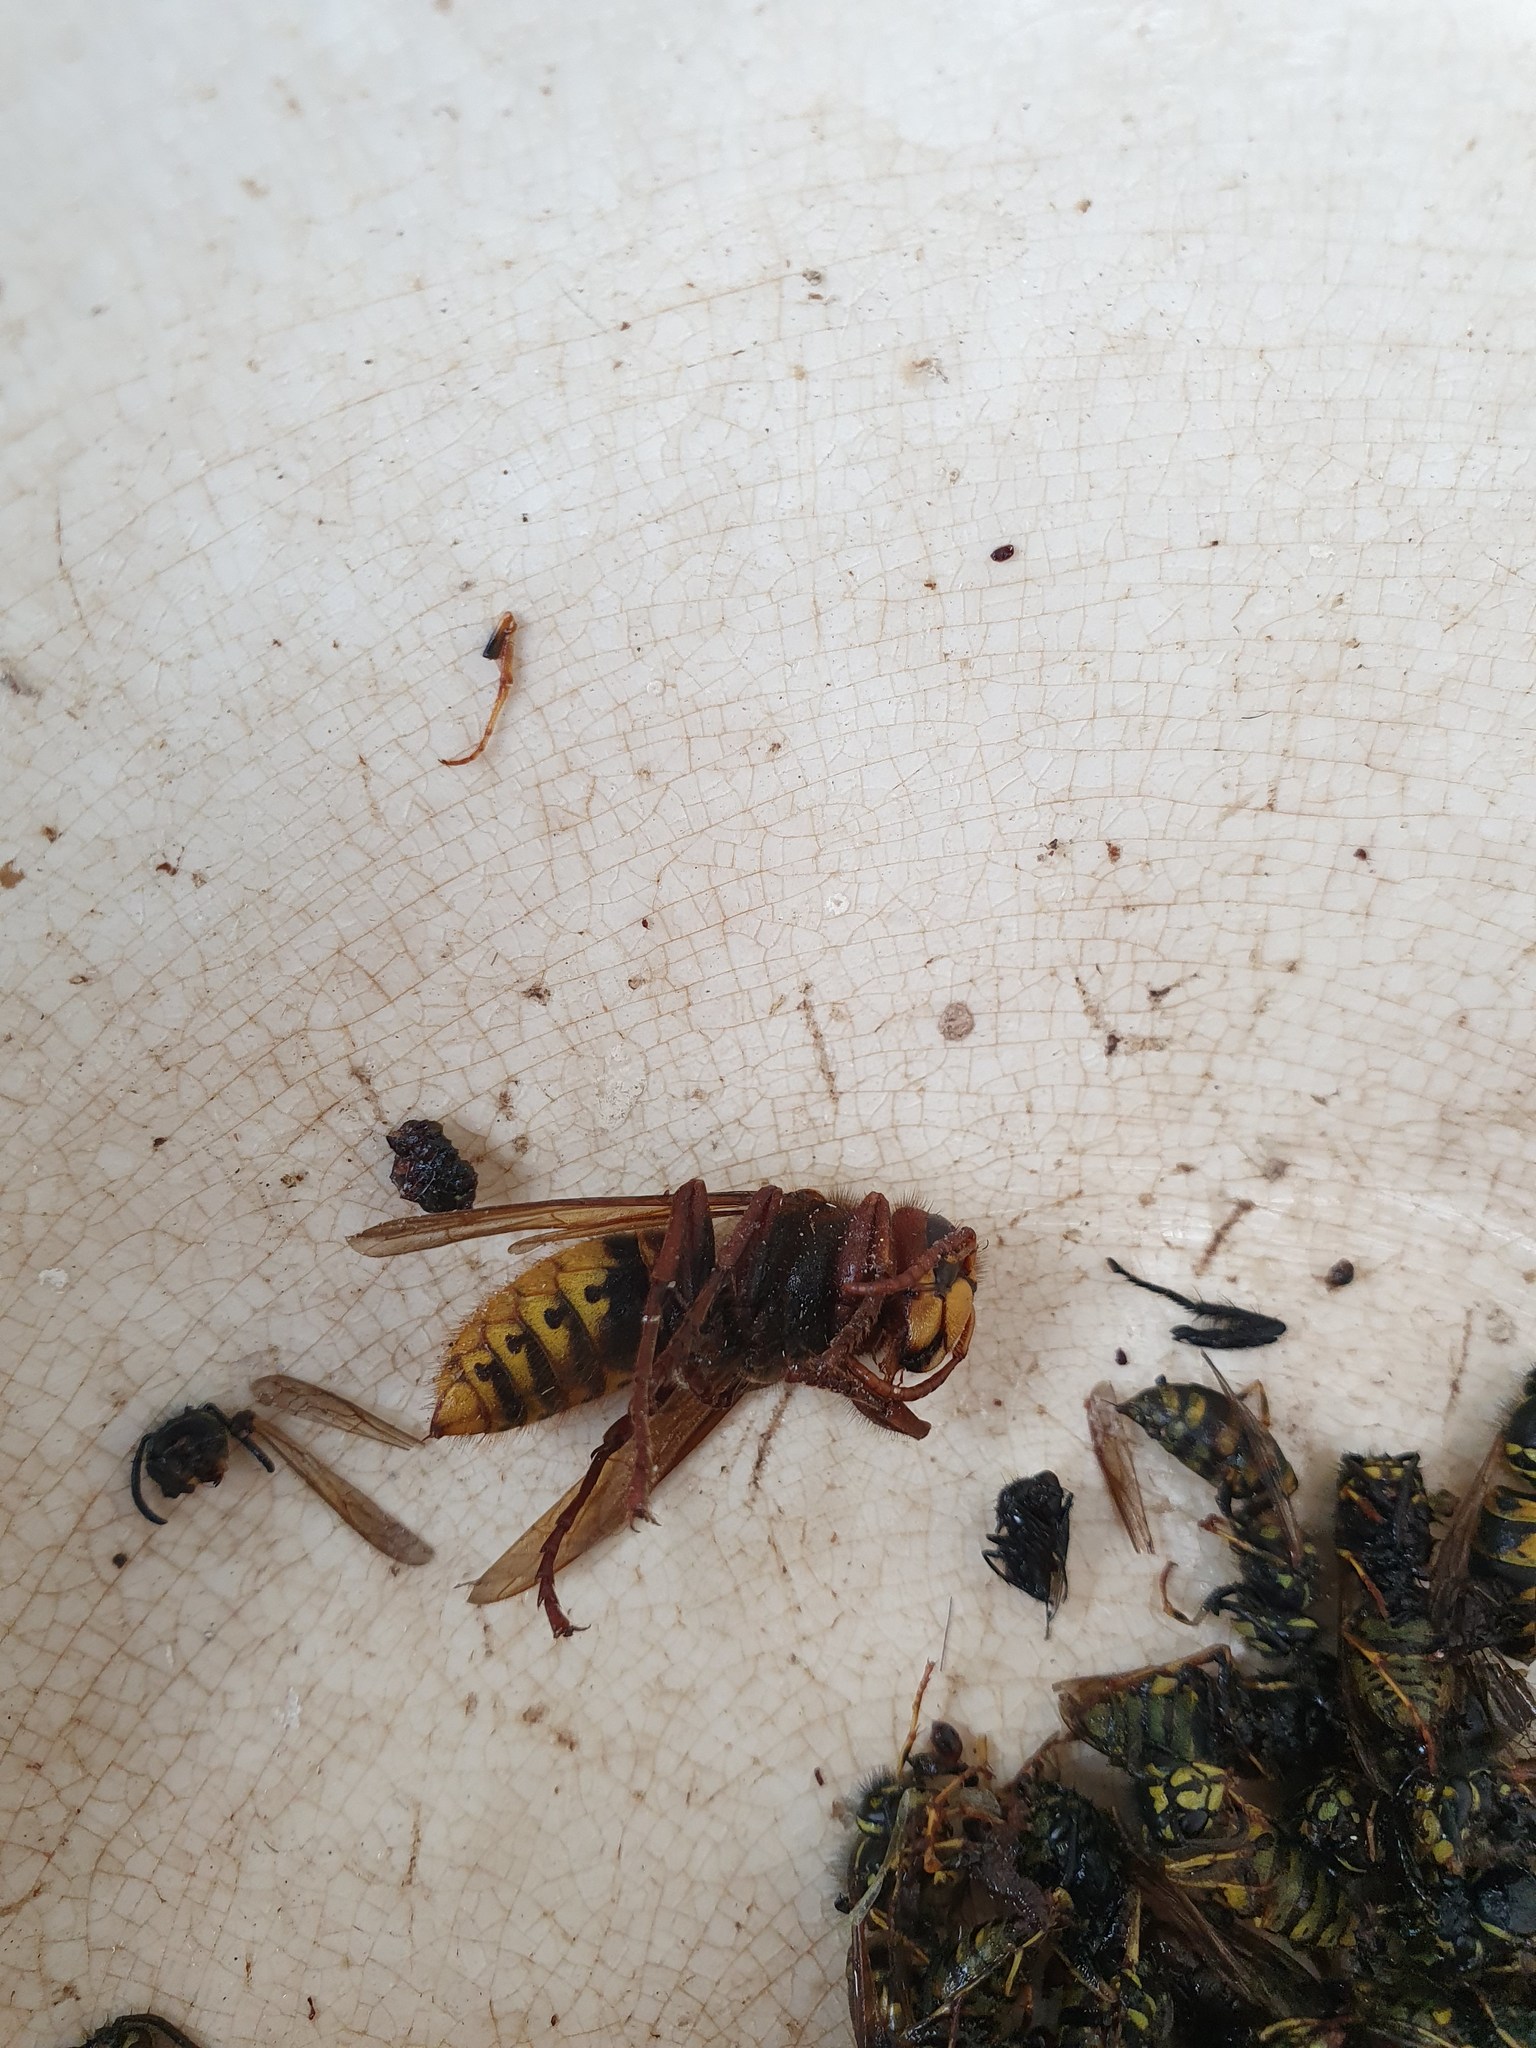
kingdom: Animalia
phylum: Arthropoda
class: Insecta
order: Hymenoptera
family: Vespidae
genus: Vespa
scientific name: Vespa crabro
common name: Hornet
